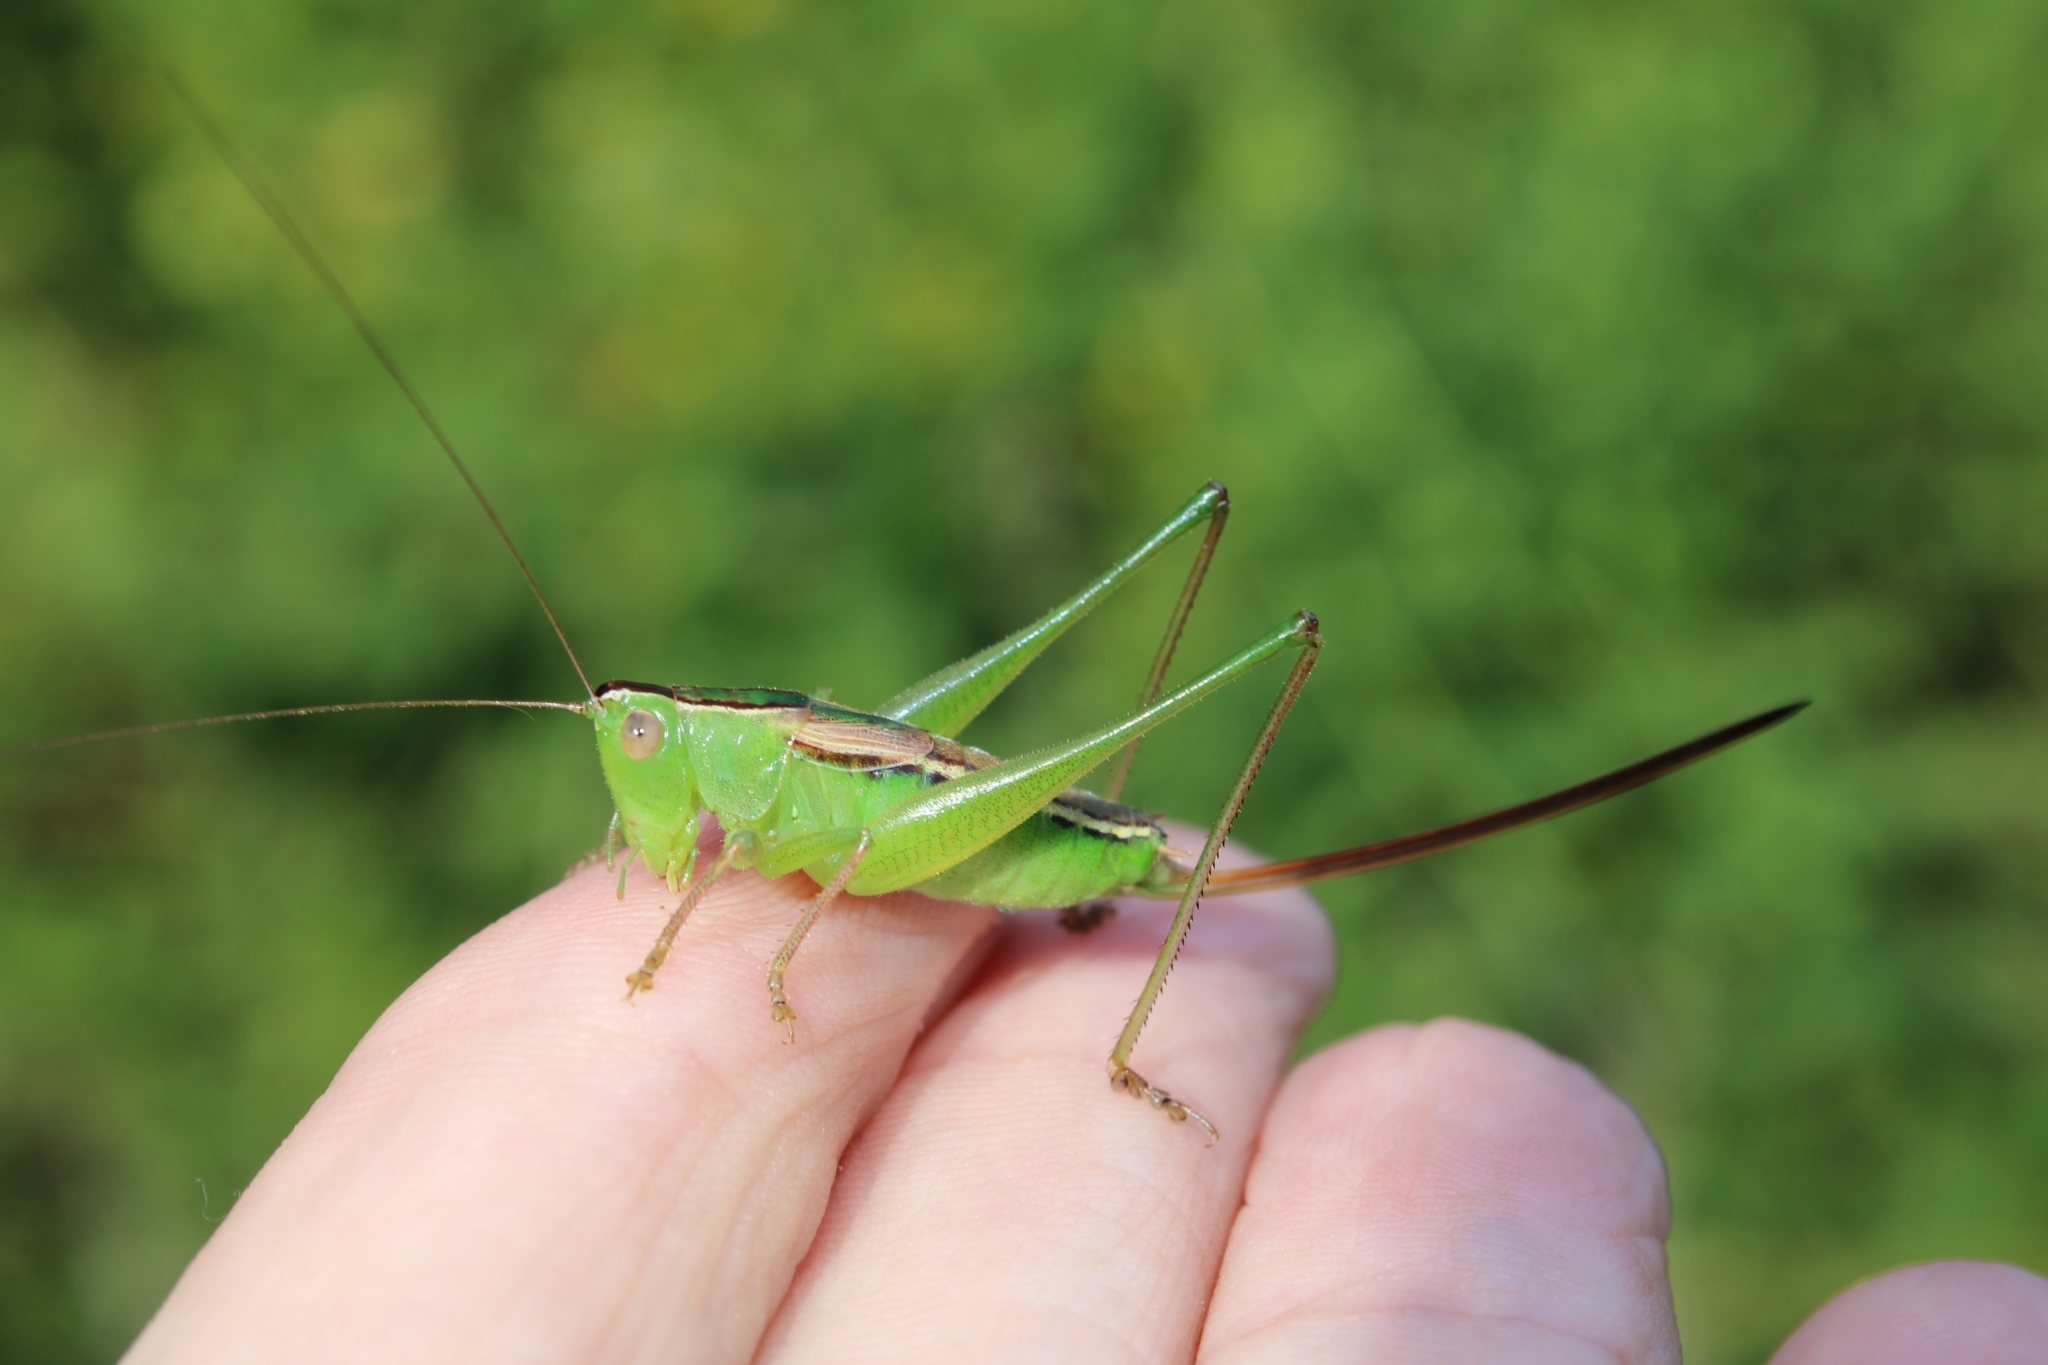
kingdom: Animalia
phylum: Arthropoda
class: Insecta
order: Orthoptera
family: Tettigoniidae
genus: Conocephalus
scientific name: Conocephalus strictus
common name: Straight-lanced katydid
